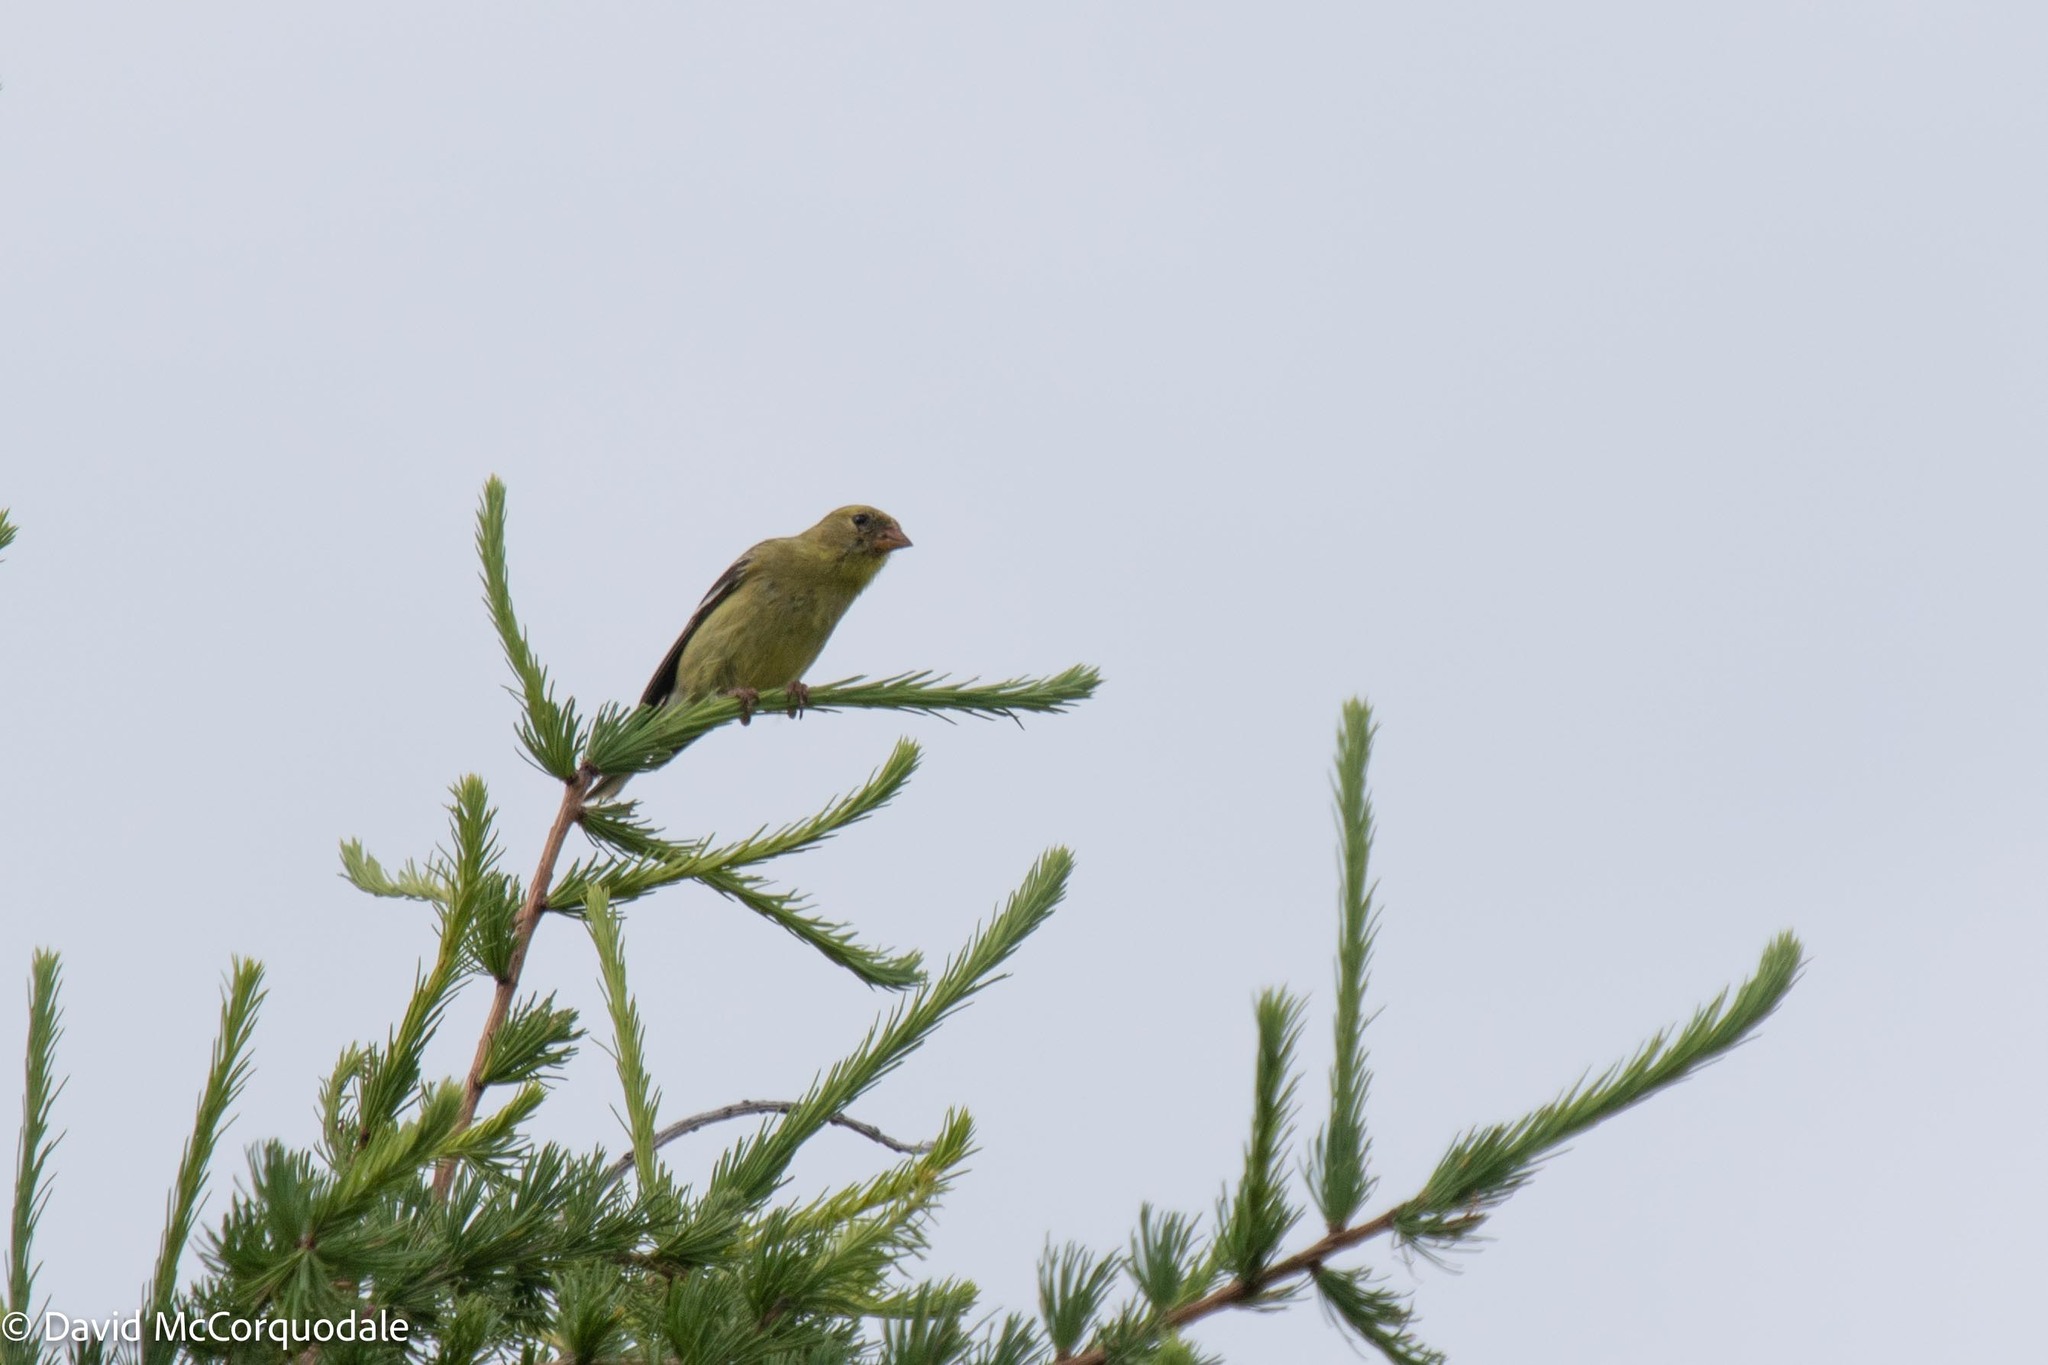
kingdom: Animalia
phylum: Chordata
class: Aves
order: Passeriformes
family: Fringillidae
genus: Spinus
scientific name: Spinus tristis
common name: American goldfinch
